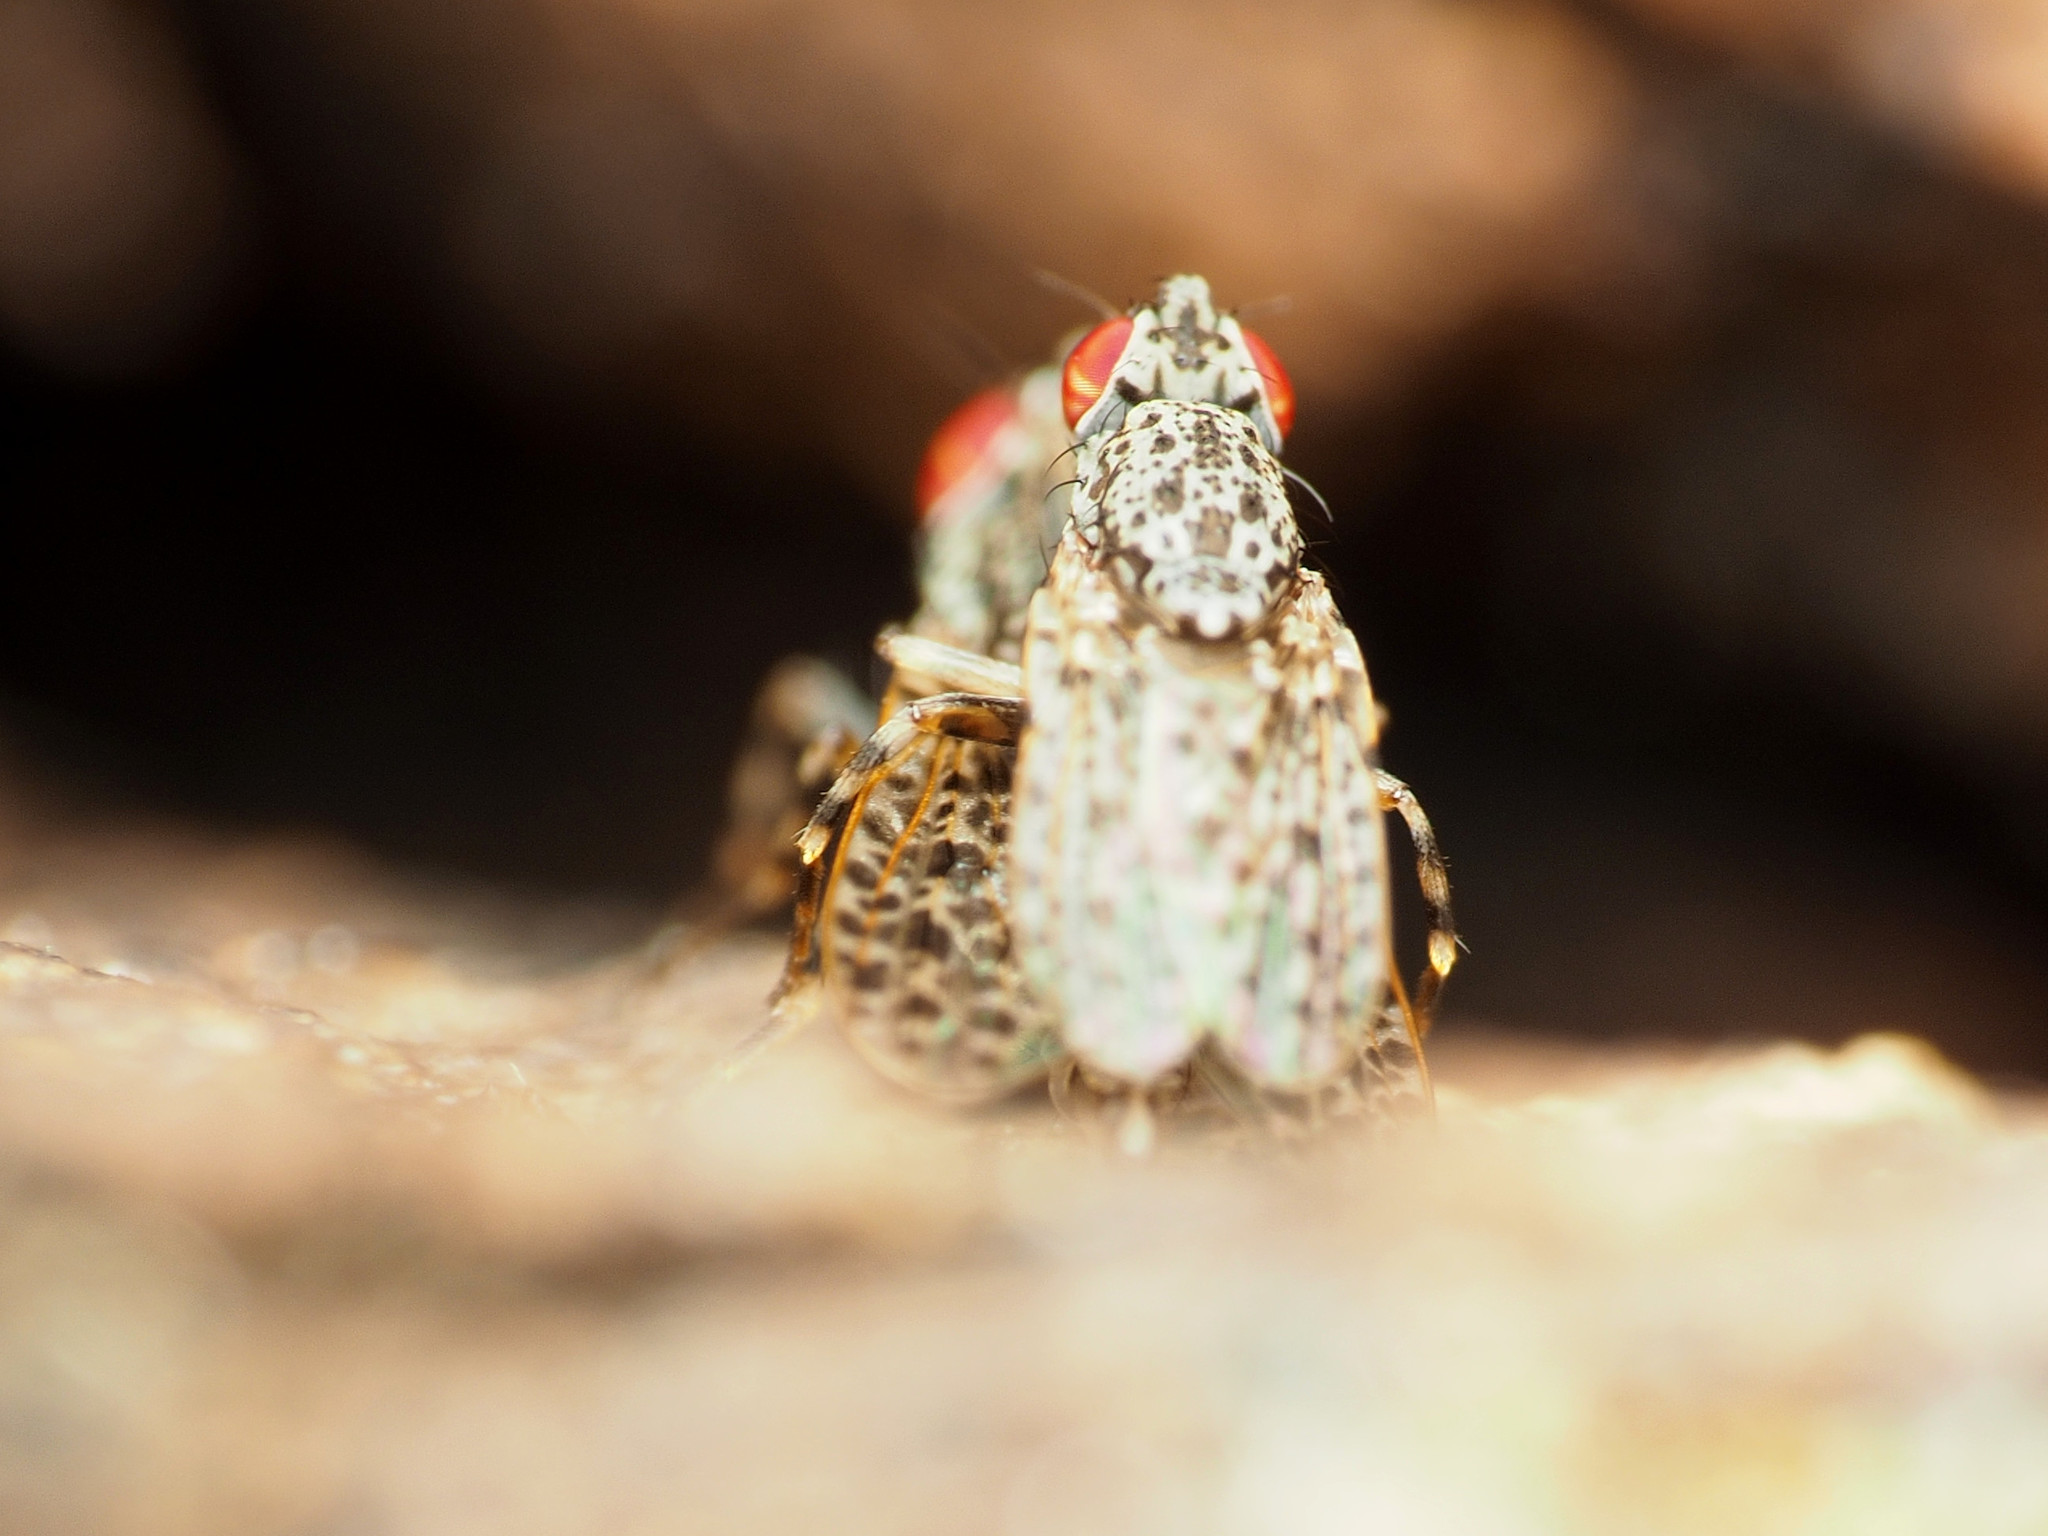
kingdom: Animalia
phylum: Arthropoda
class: Insecta
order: Diptera
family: Odiniidae
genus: Traginops
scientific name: Traginops irroratus
